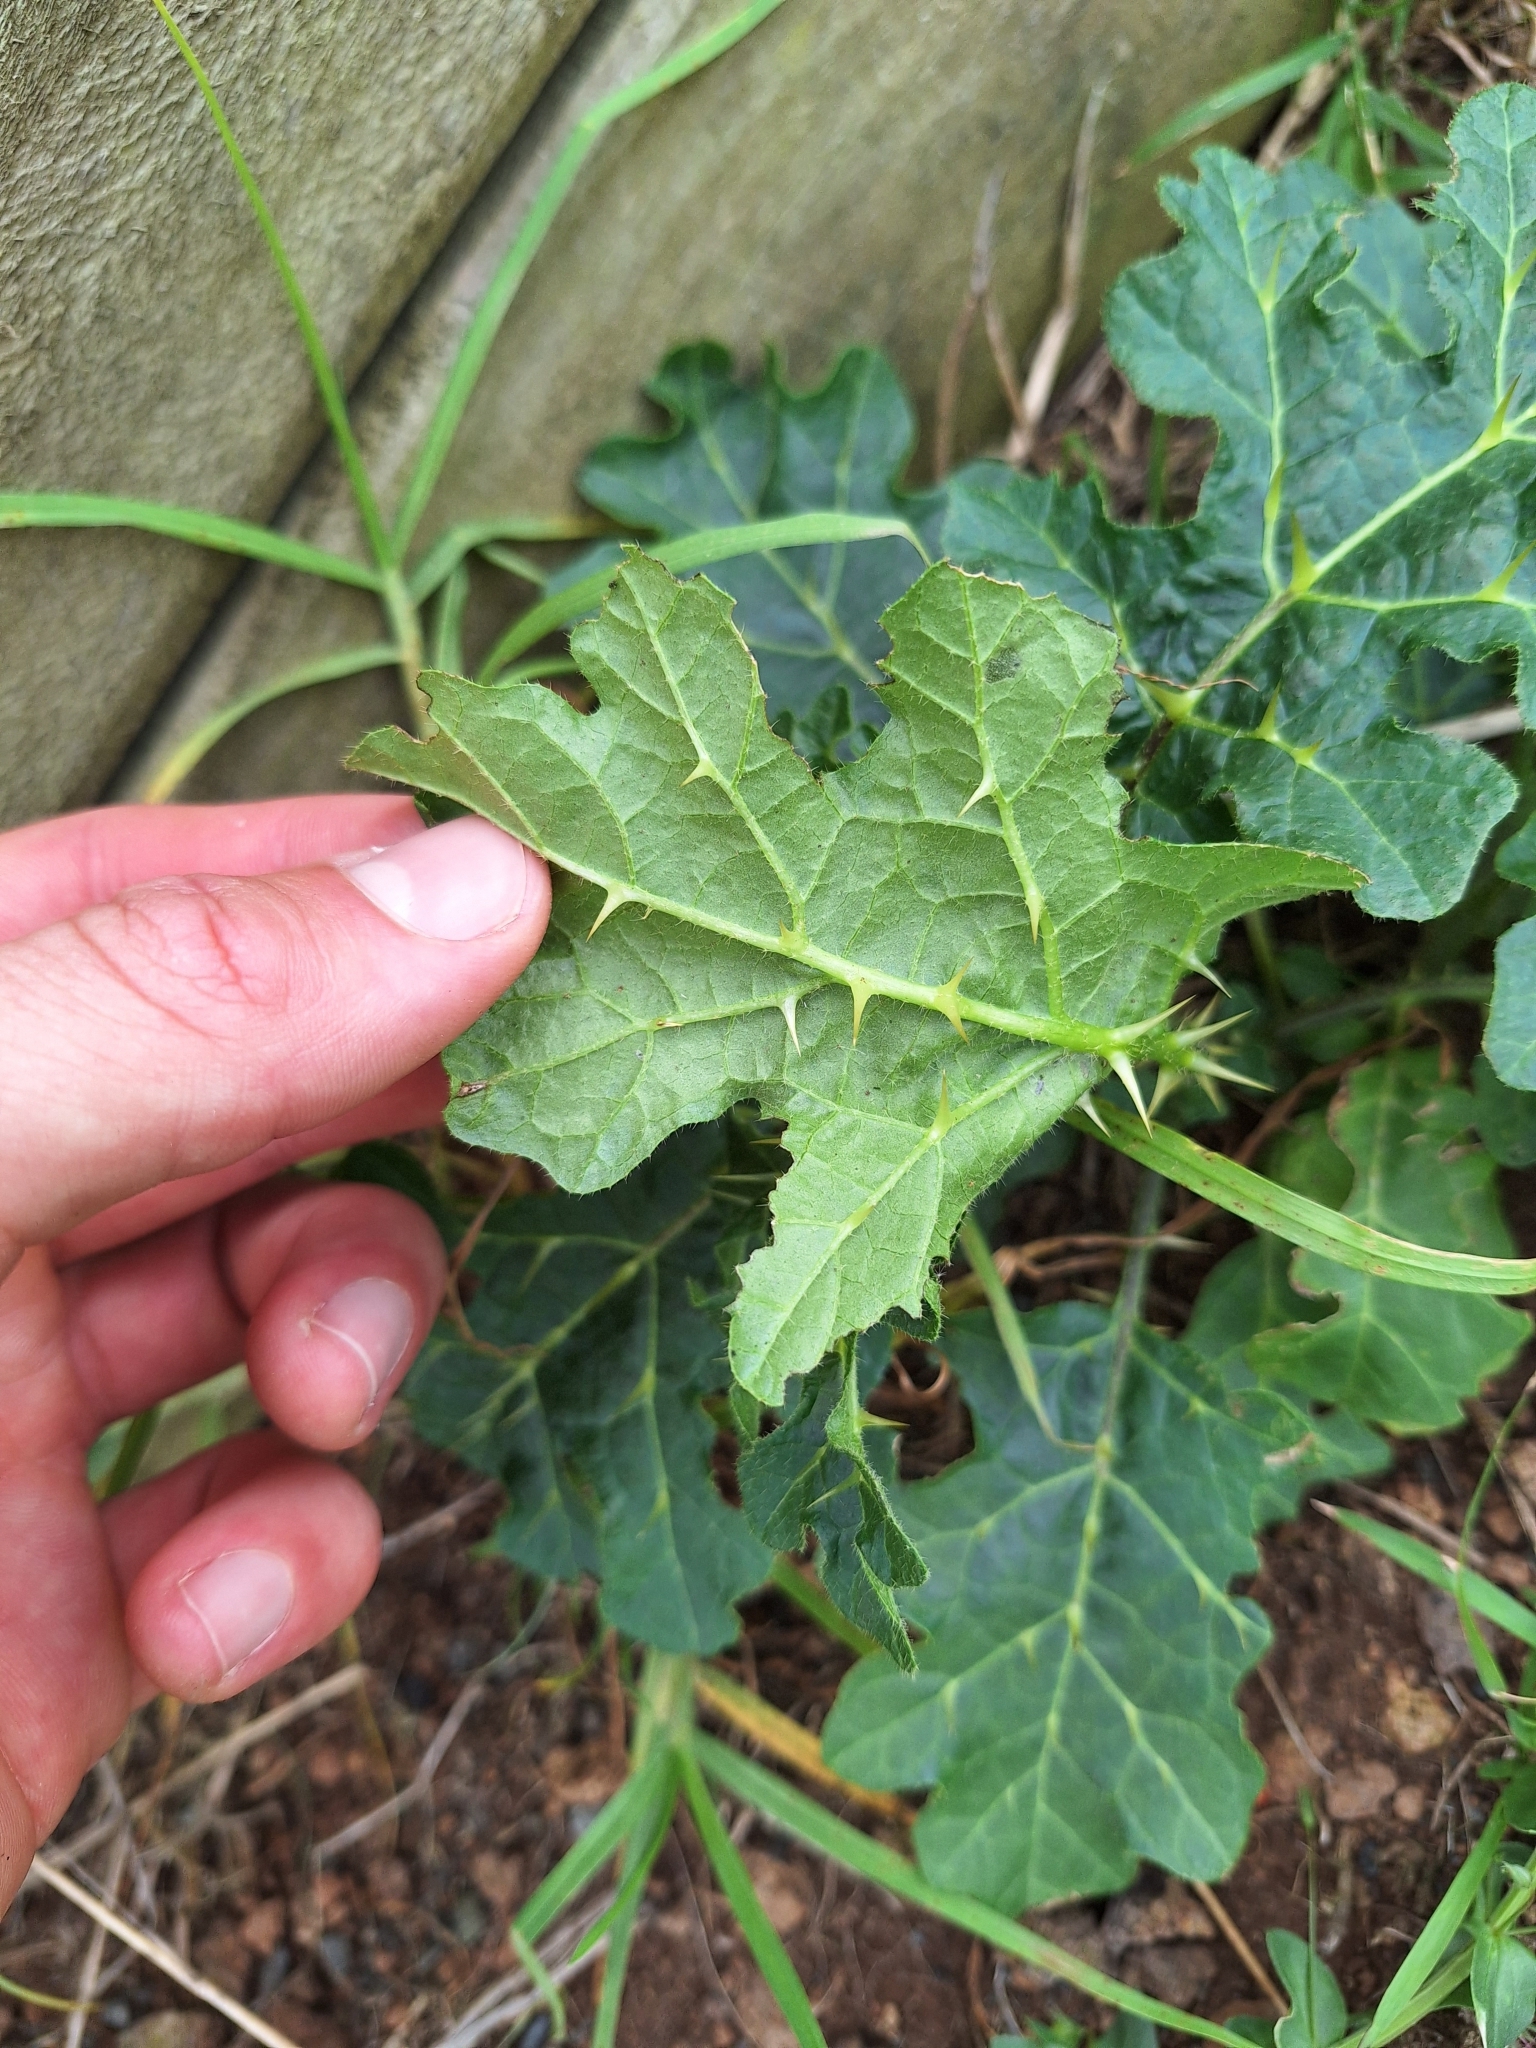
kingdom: Plantae
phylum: Tracheophyta
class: Magnoliopsida
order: Solanales
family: Solanaceae
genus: Solanum
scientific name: Solanum linnaeanum
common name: Nightshade
